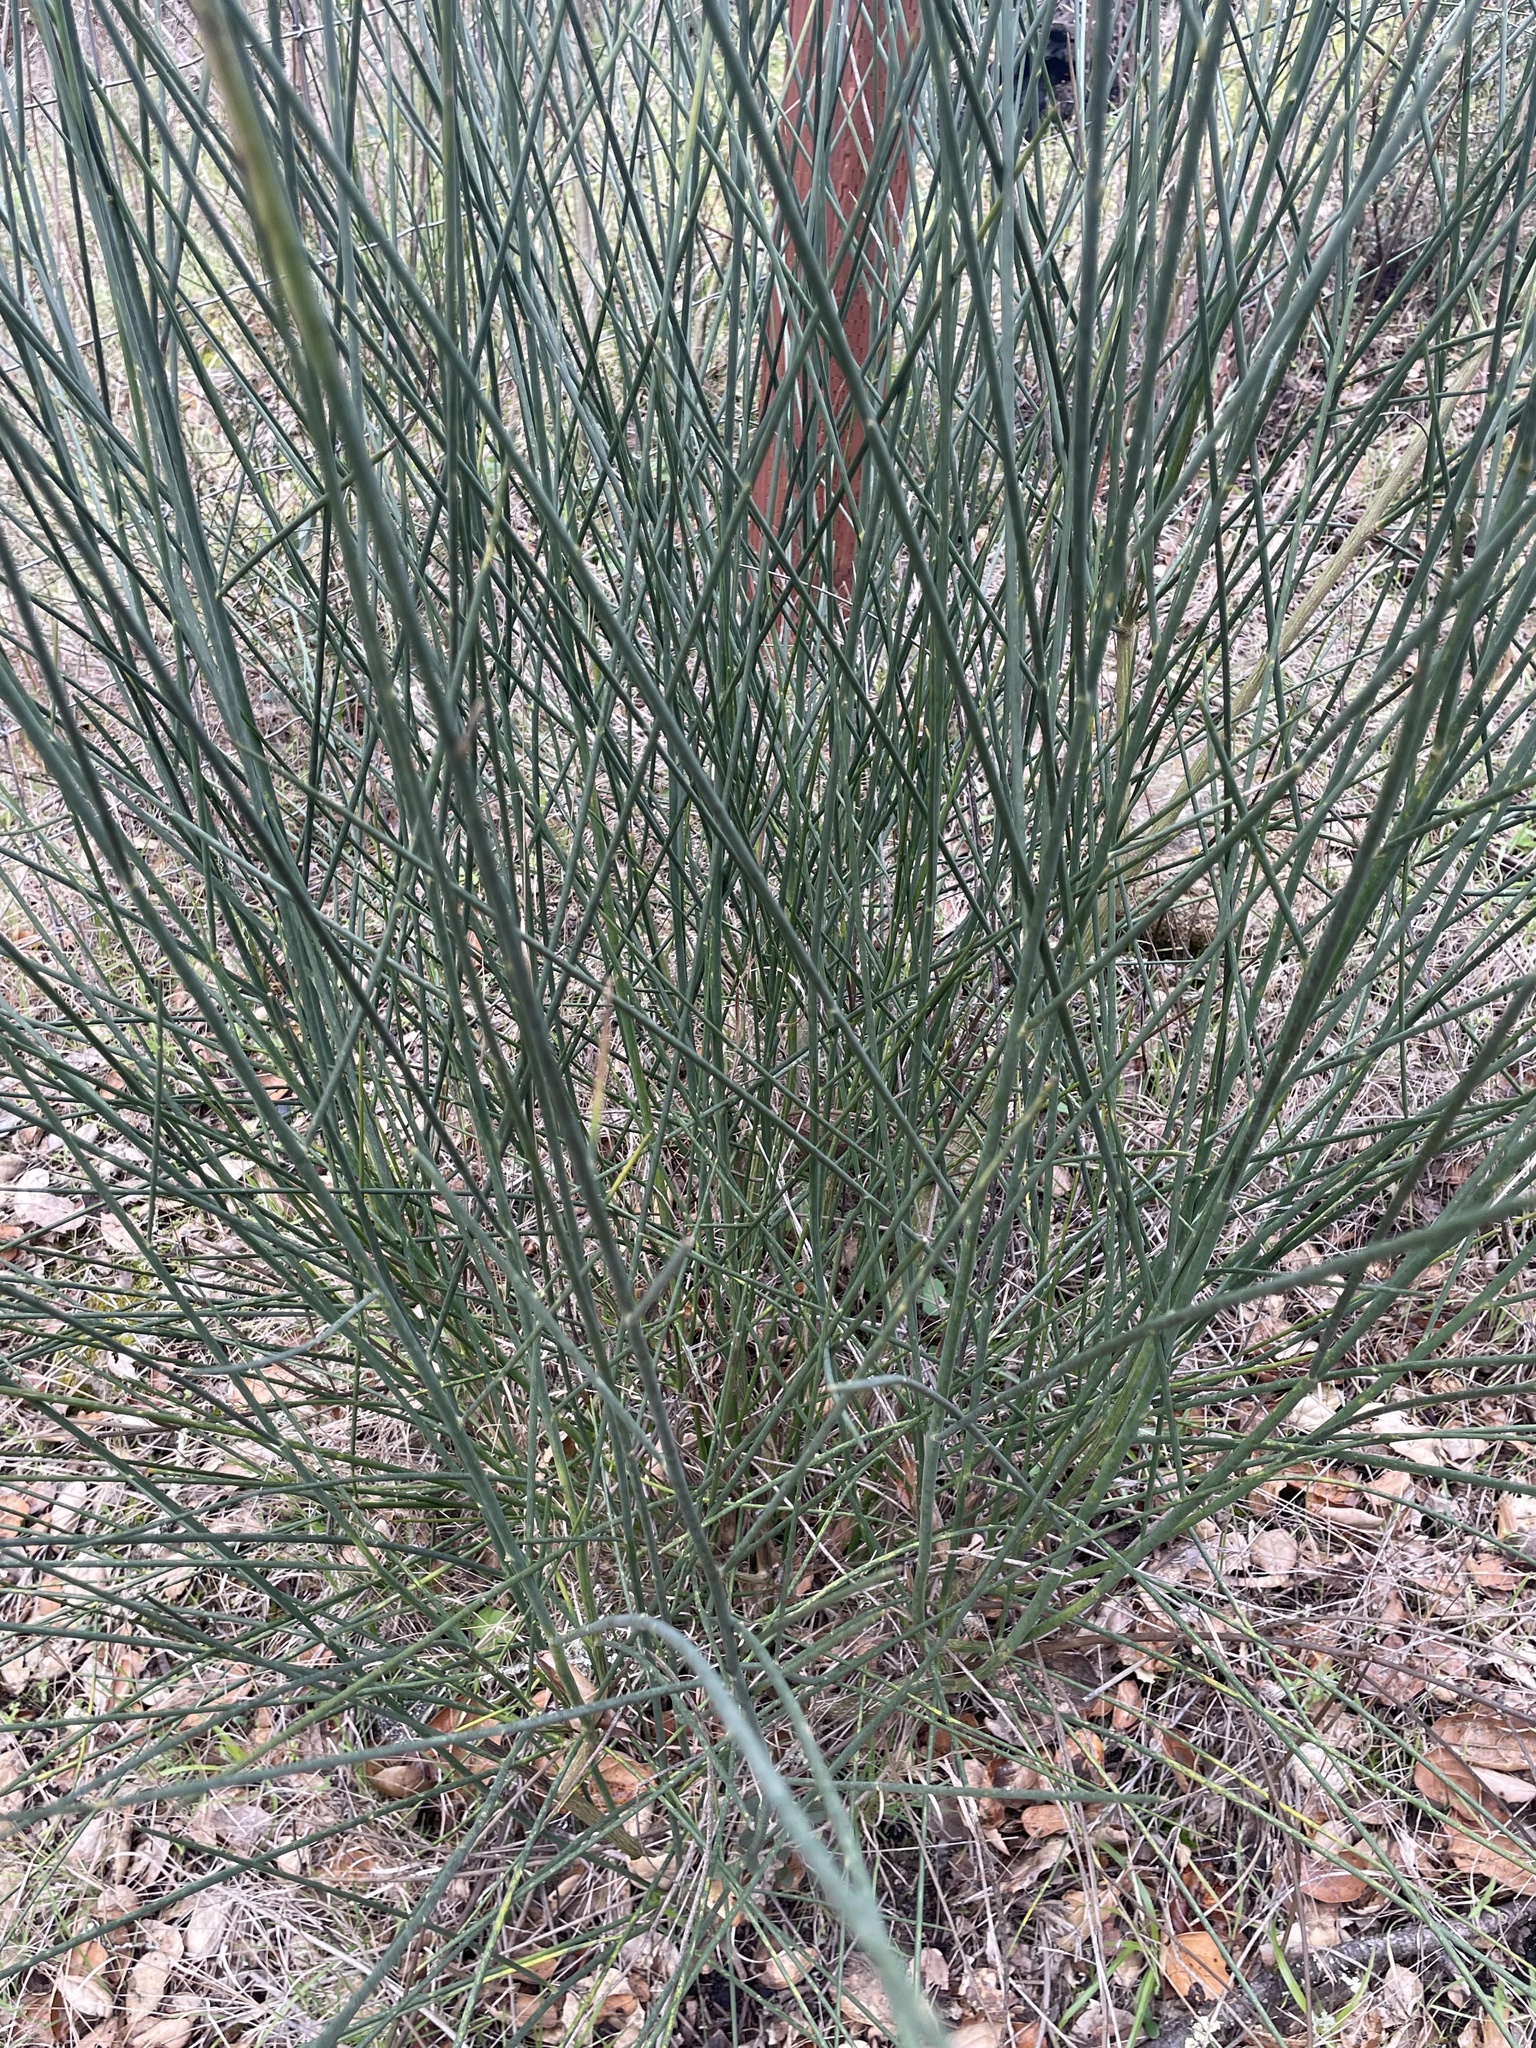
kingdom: Plantae
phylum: Tracheophyta
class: Magnoliopsida
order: Fabales
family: Fabaceae
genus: Spartium
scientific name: Spartium junceum
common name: Spanish broom
